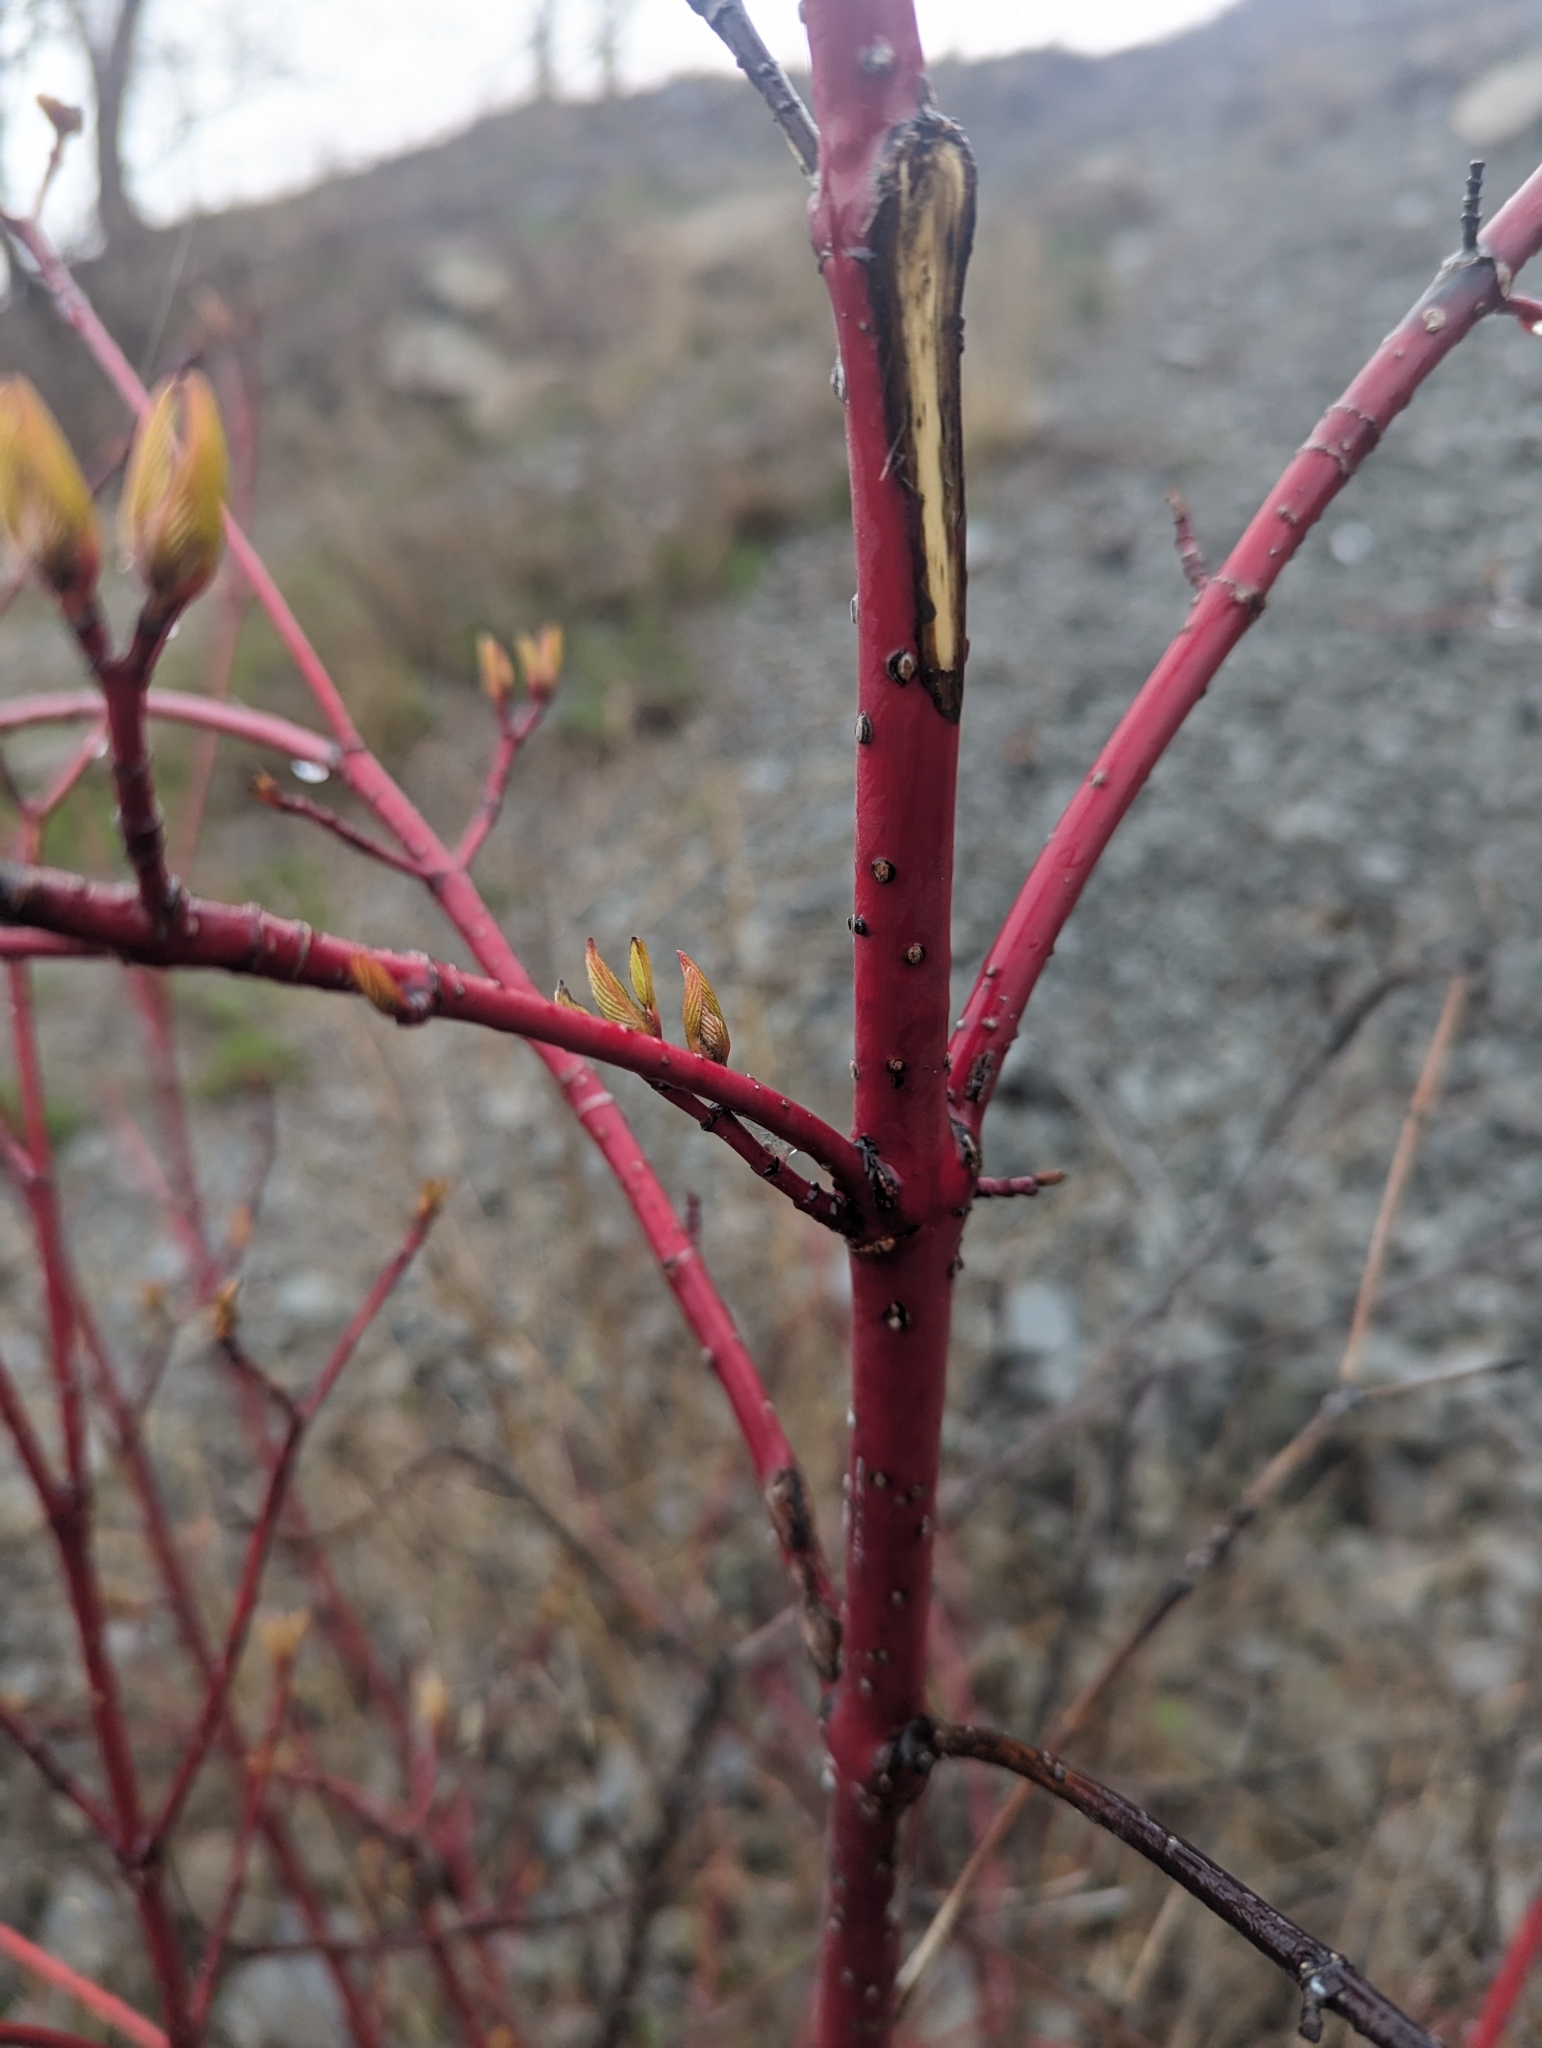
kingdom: Plantae
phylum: Tracheophyta
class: Magnoliopsida
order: Cornales
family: Cornaceae
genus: Cornus
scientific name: Cornus sericea
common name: Red-osier dogwood
